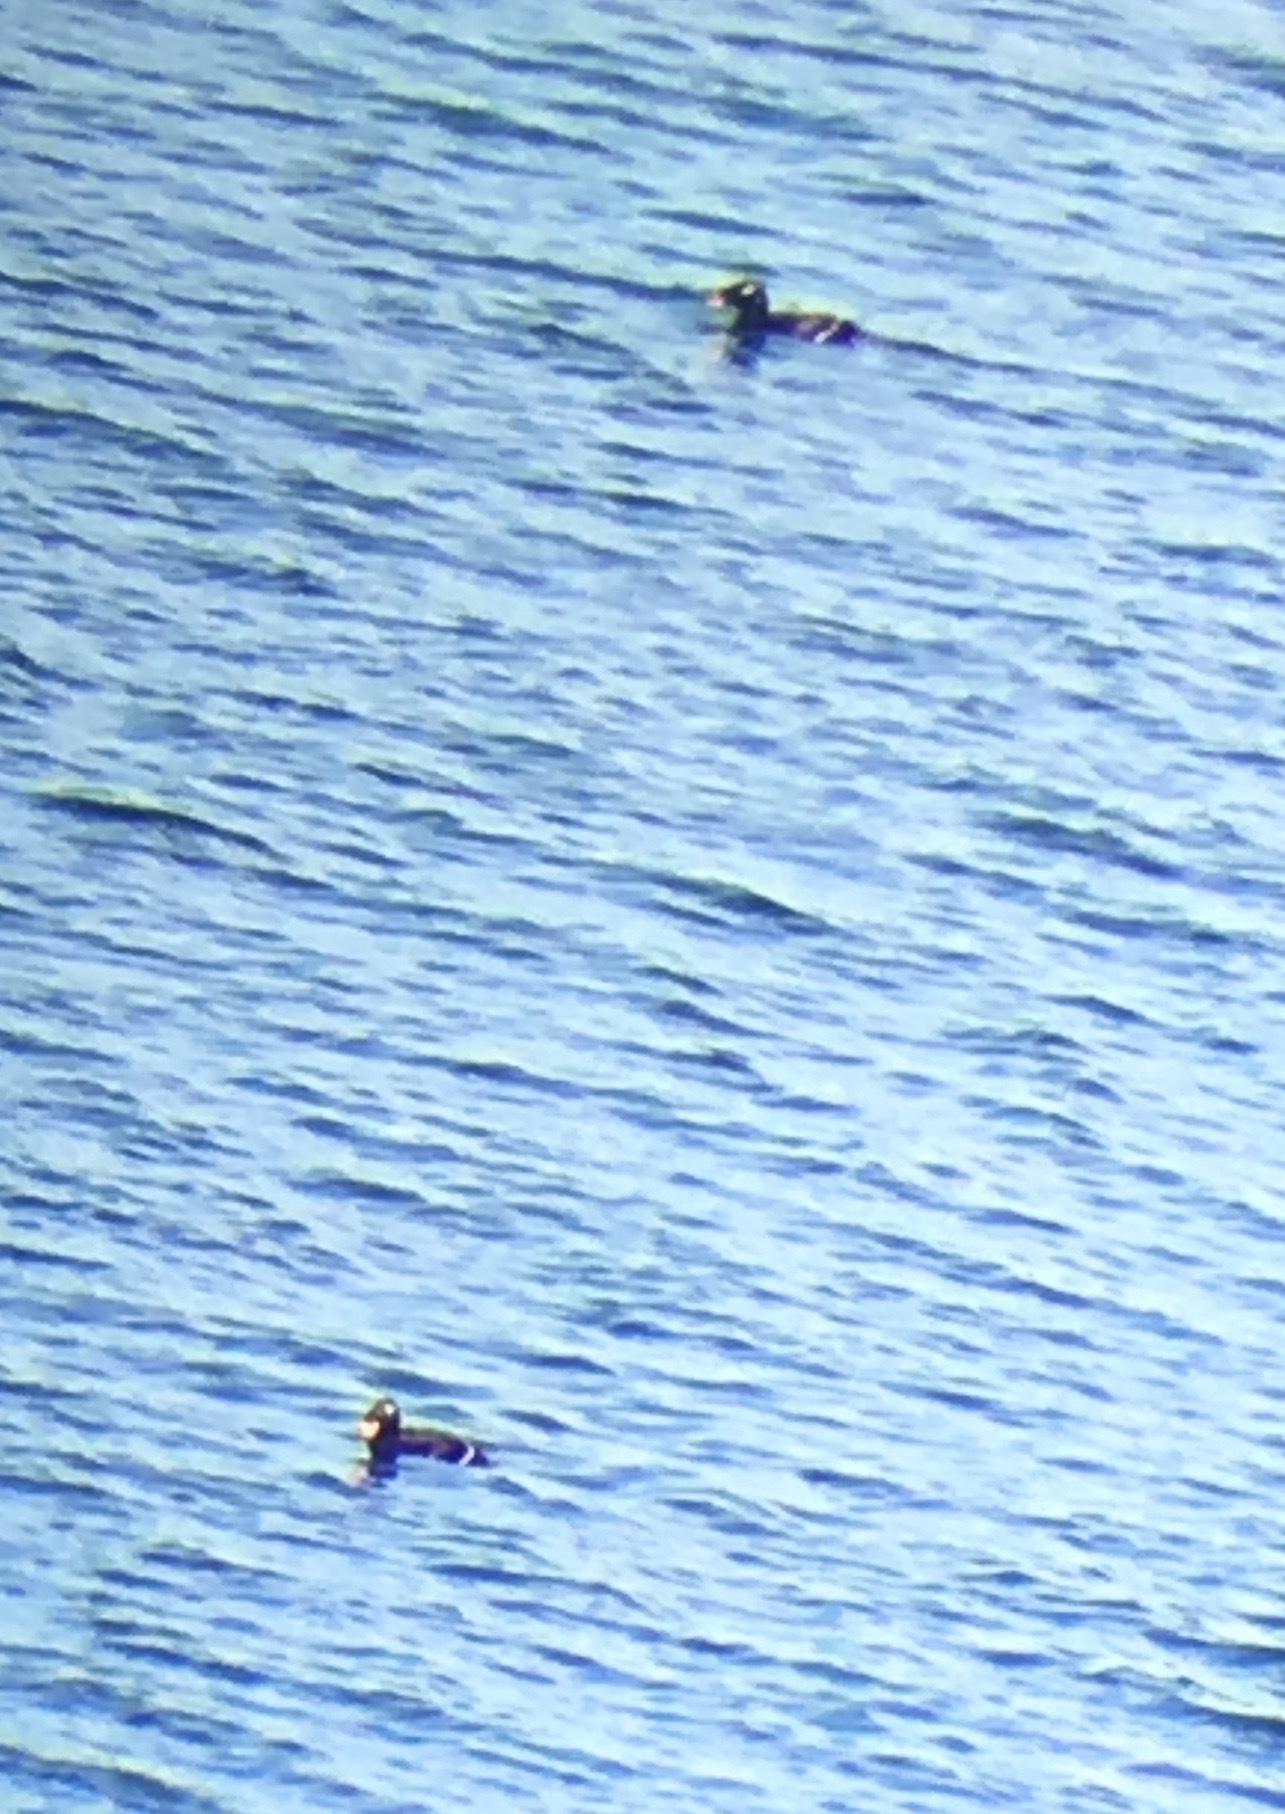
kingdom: Animalia
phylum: Chordata
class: Aves
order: Anseriformes
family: Anatidae
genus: Melanitta
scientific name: Melanitta stejnegeri
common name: Stejneger's scoter
